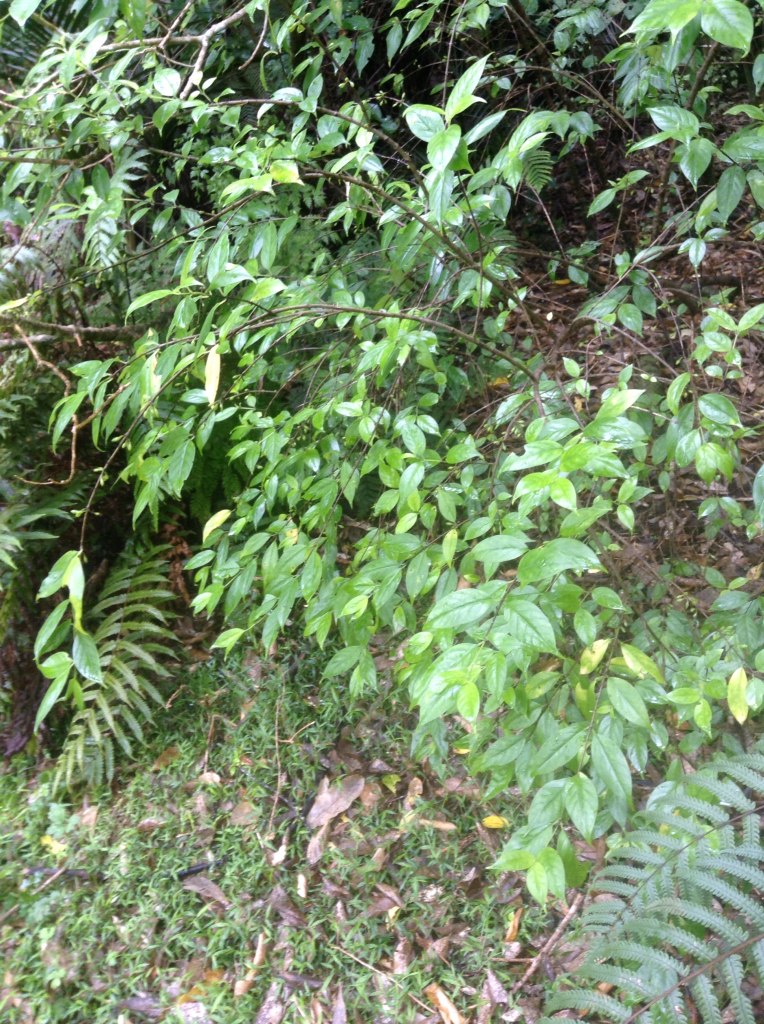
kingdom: Plantae
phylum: Tracheophyta
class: Magnoliopsida
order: Gentianales
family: Loganiaceae
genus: Geniostoma
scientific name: Geniostoma ligustrifolium
